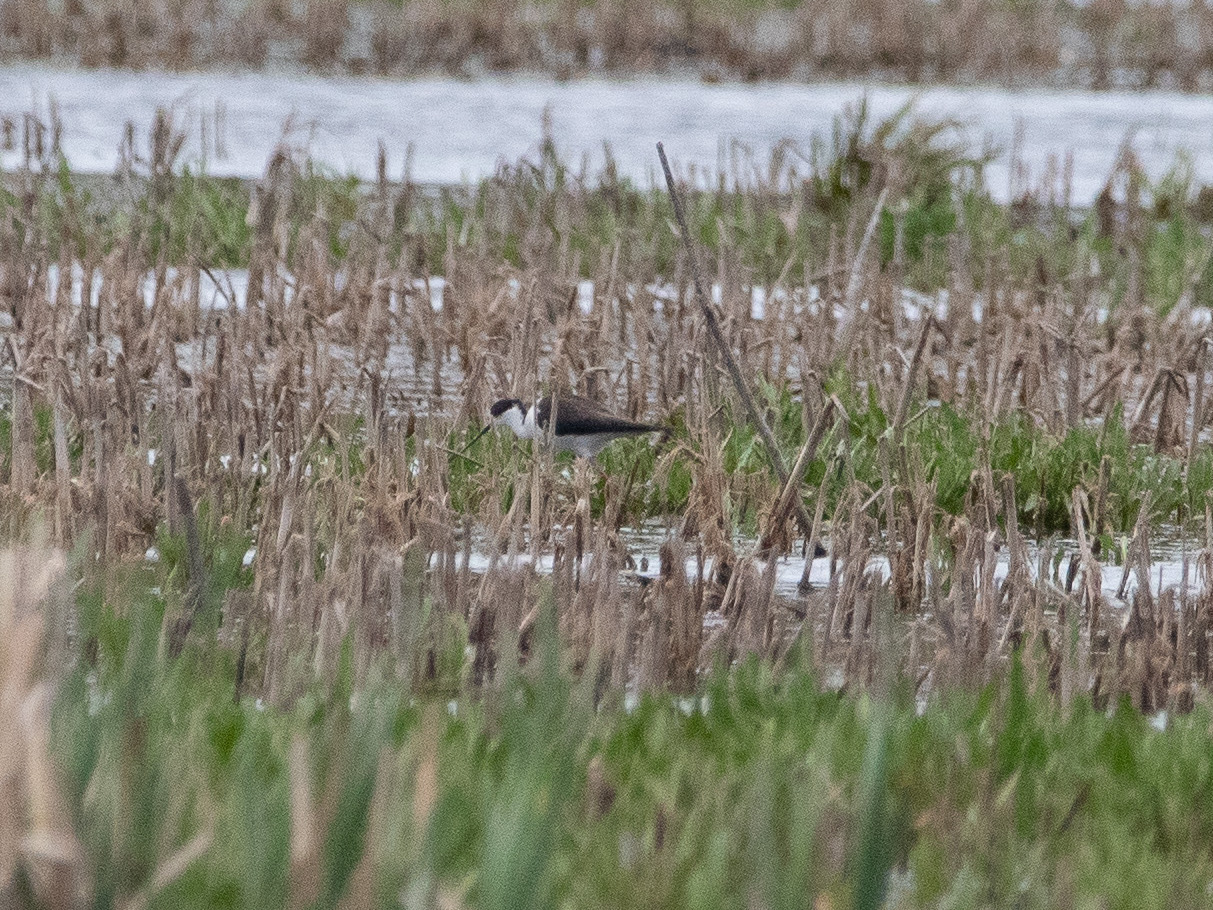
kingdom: Animalia
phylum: Chordata
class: Aves
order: Charadriiformes
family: Recurvirostridae
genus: Himantopus
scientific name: Himantopus himantopus
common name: Black-winged stilt
